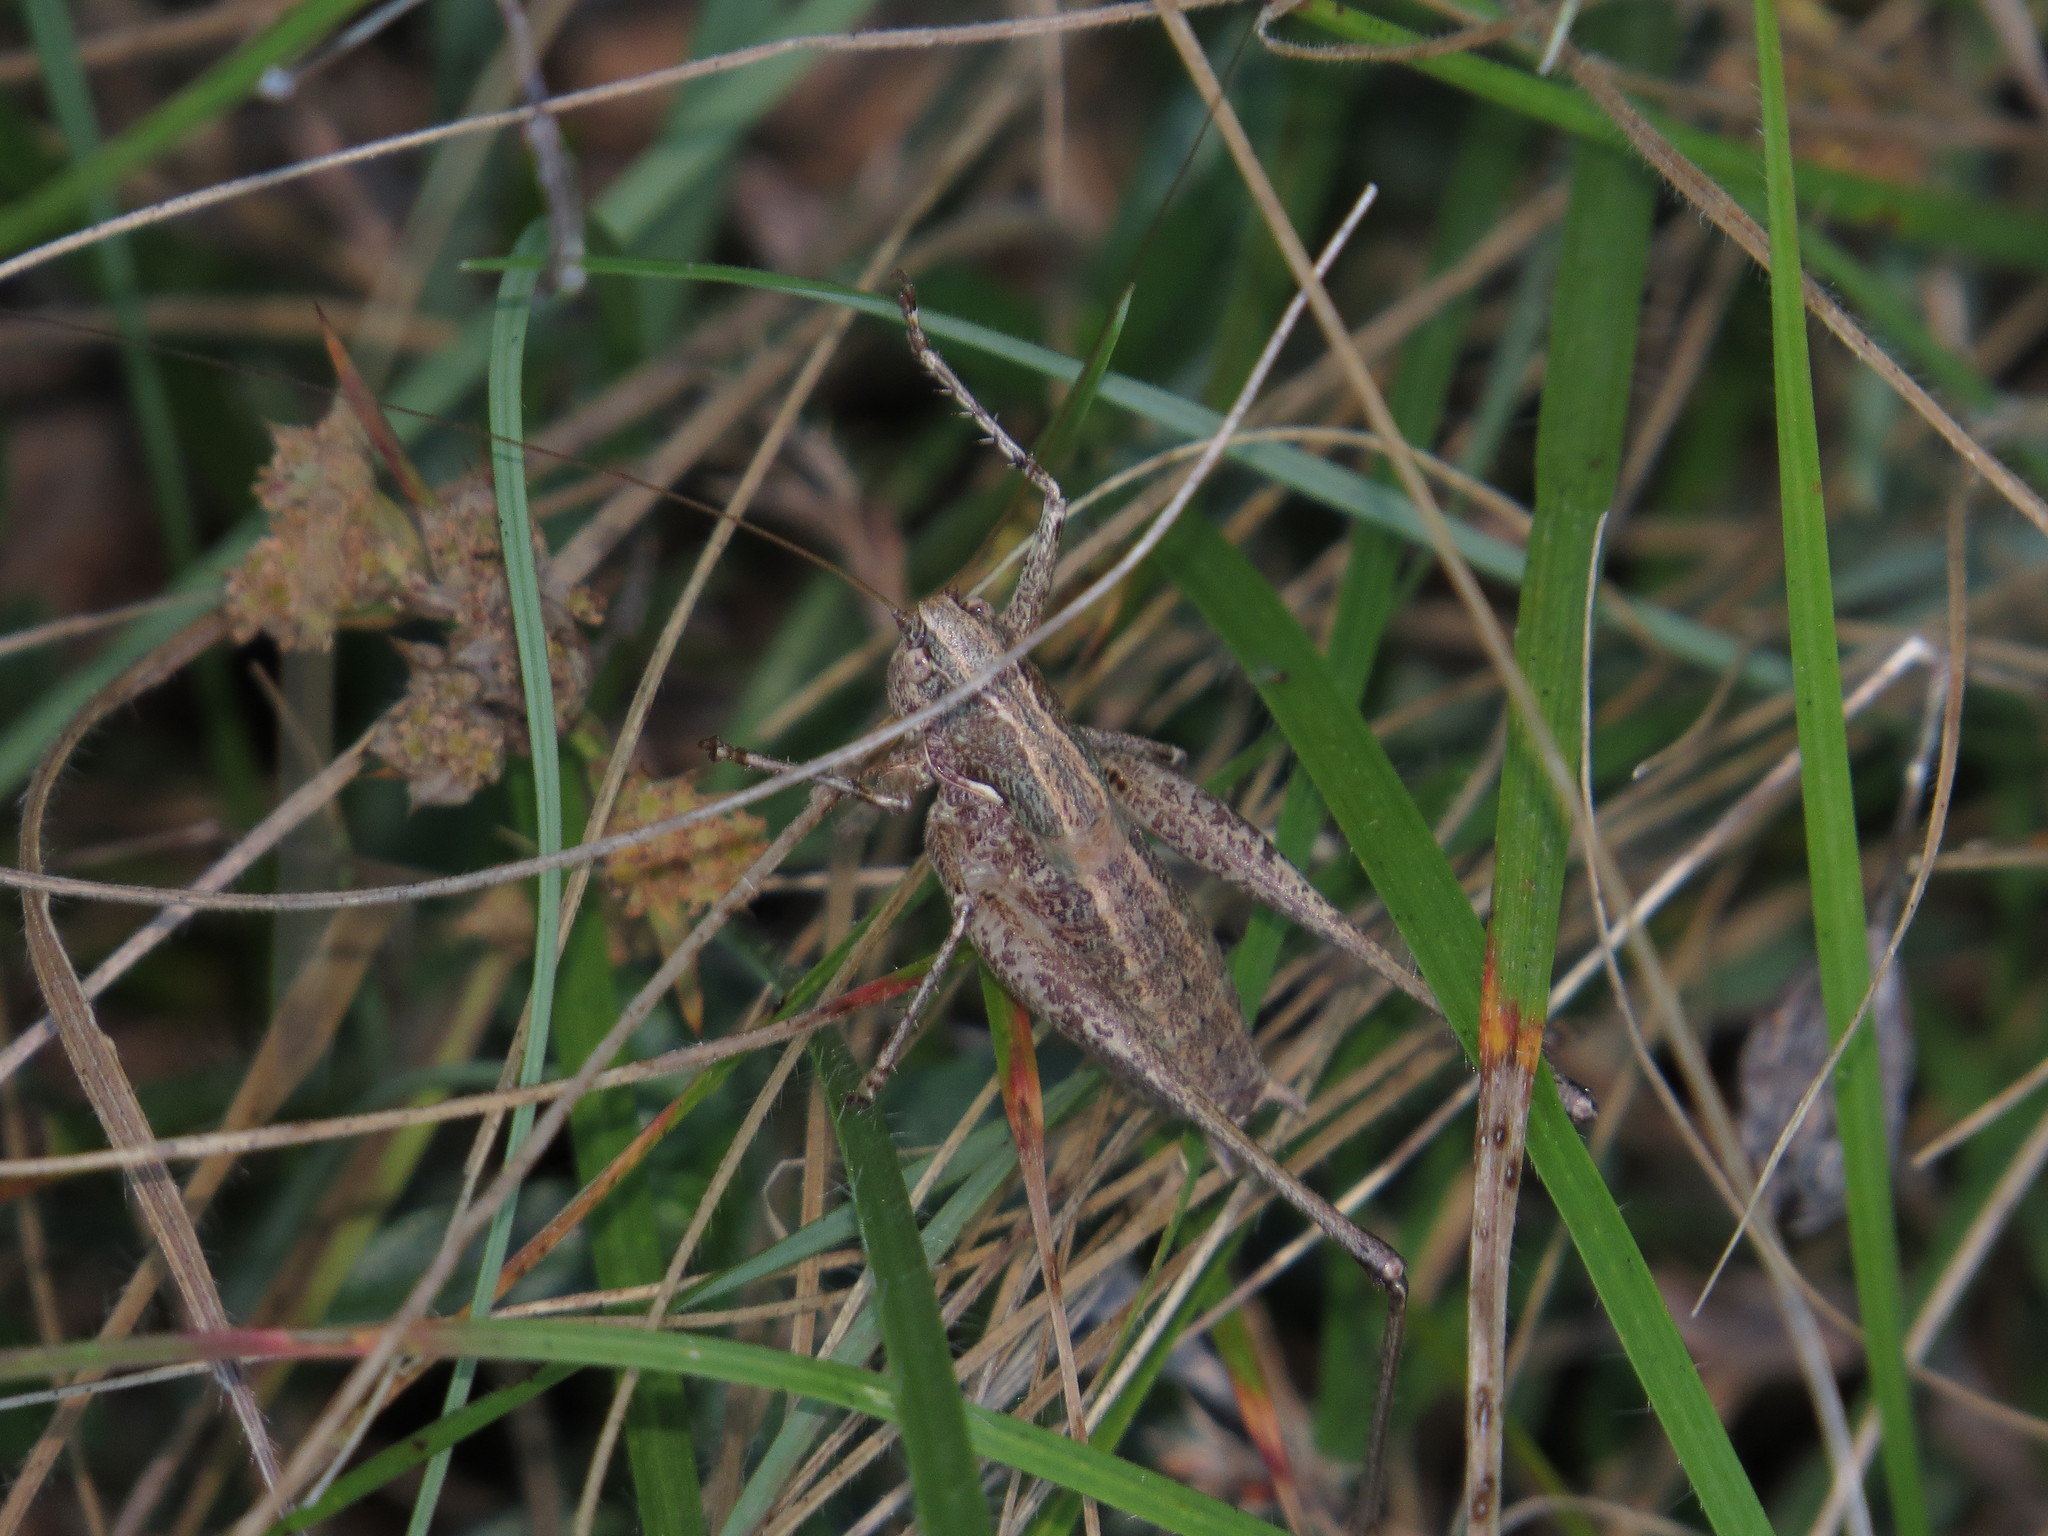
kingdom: Animalia
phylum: Arthropoda
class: Insecta
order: Orthoptera
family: Tettigoniidae
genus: Rhacocleis
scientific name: Rhacocleis germanica
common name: Mediterranean bush-cricket
